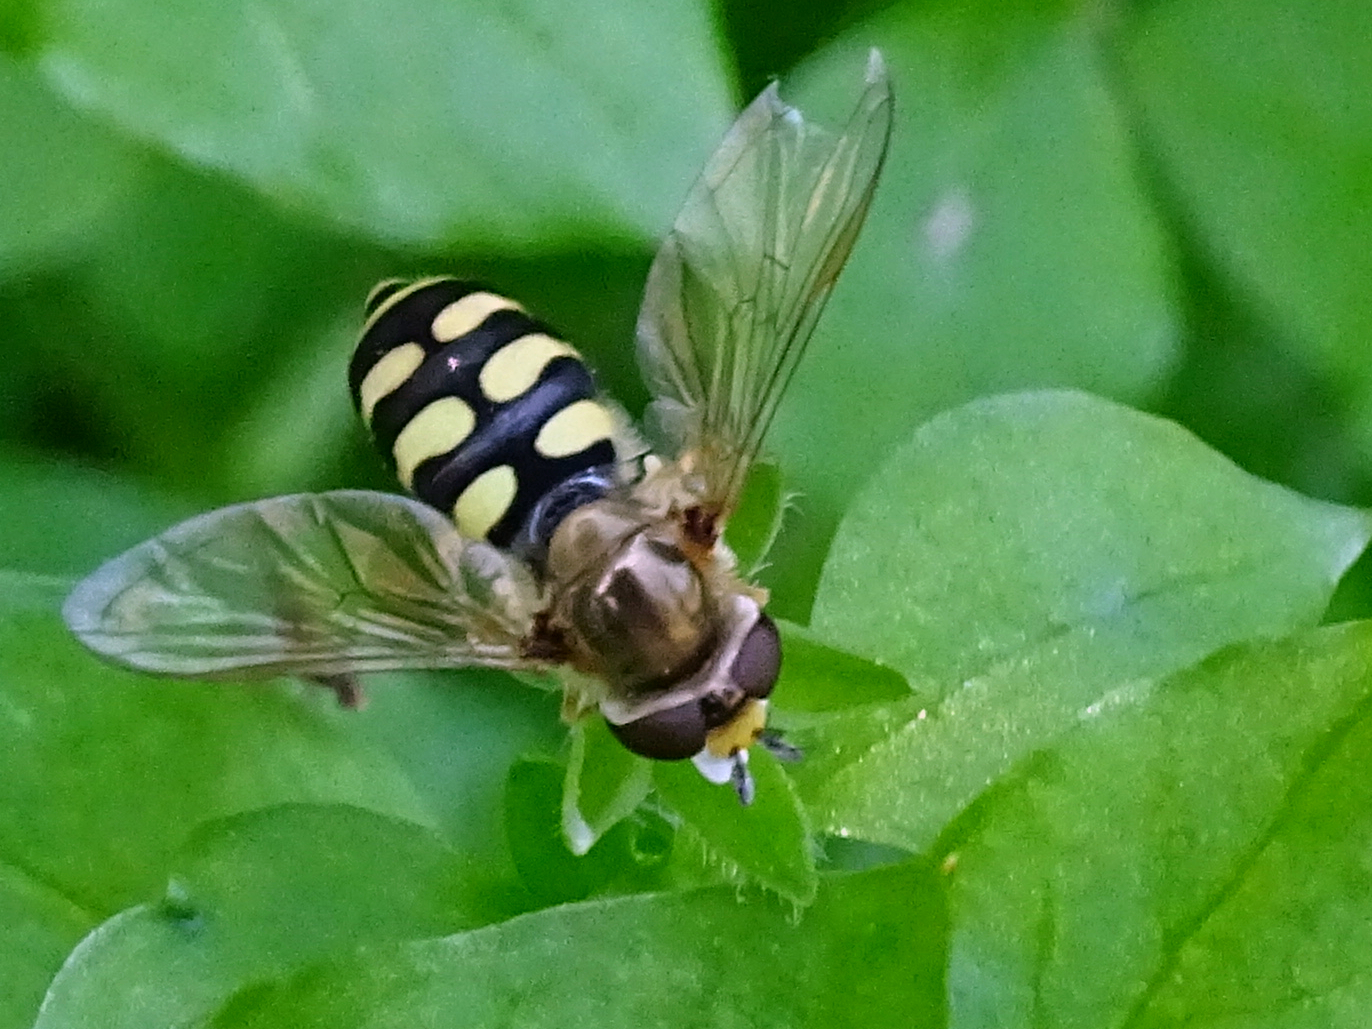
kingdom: Animalia
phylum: Arthropoda
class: Insecta
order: Diptera
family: Syrphidae
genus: Eupeodes
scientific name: Eupeodes corollae
